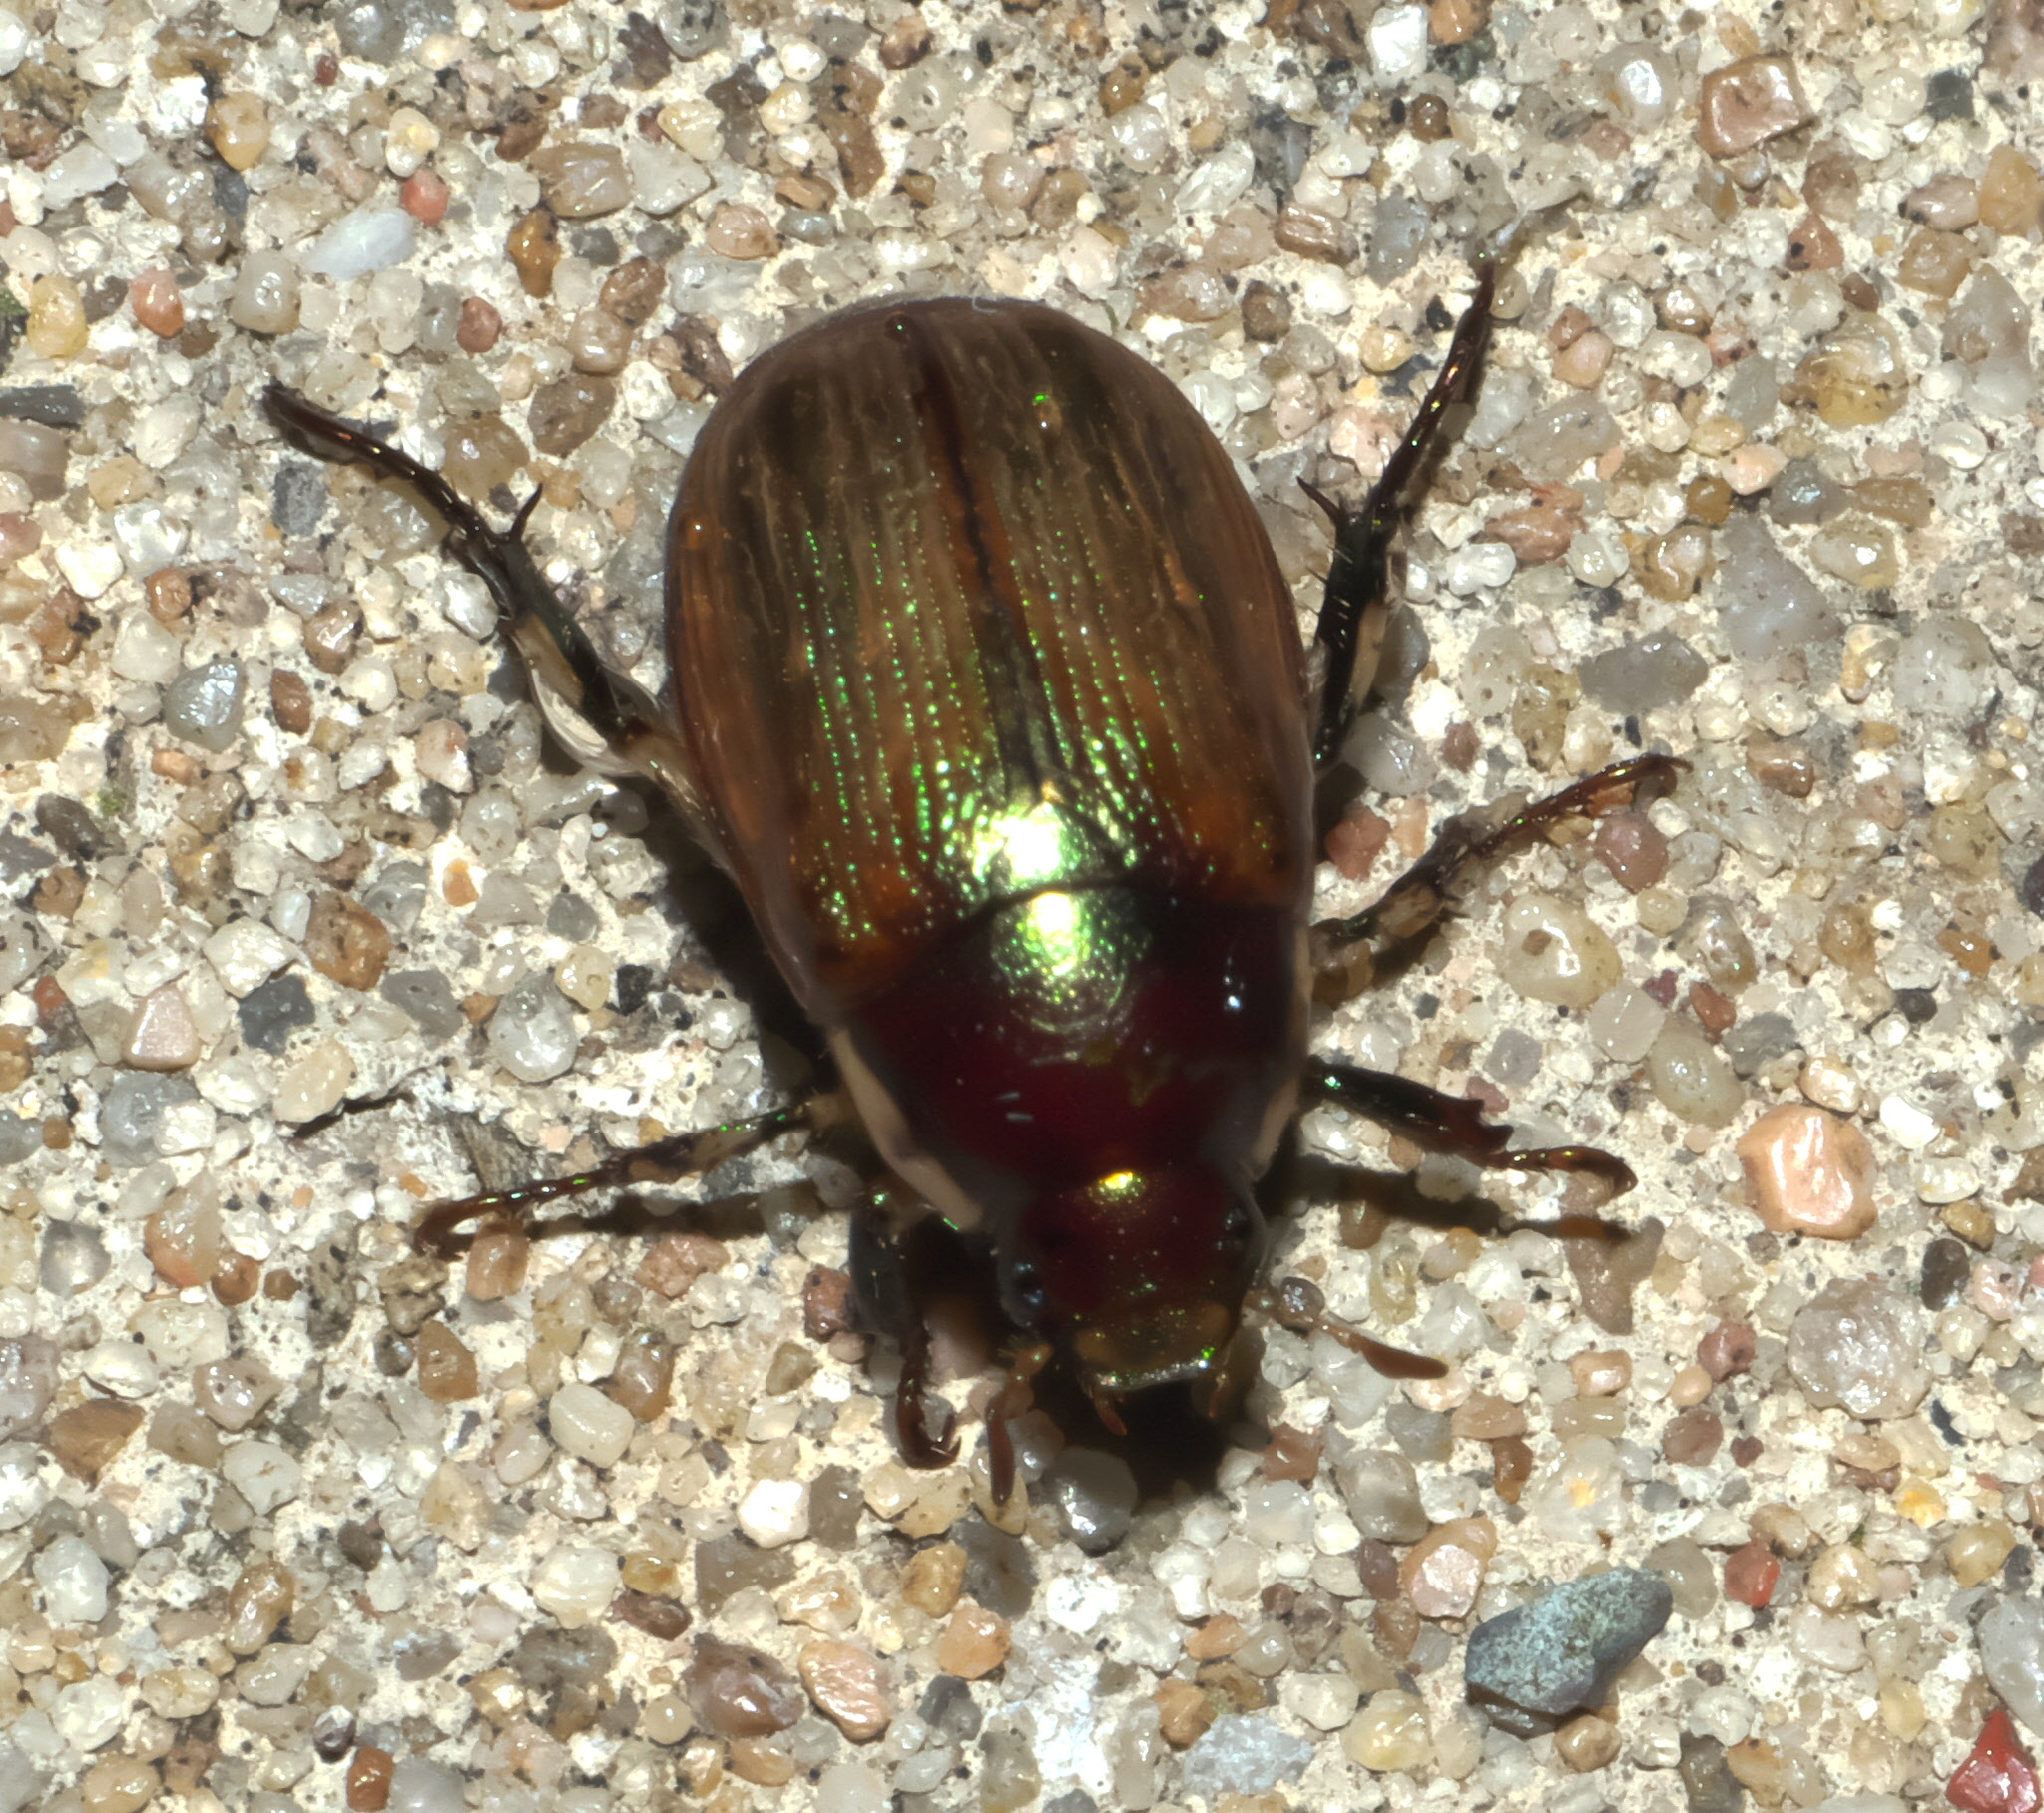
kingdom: Animalia
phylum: Arthropoda
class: Insecta
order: Coleoptera
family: Scarabaeidae
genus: Callistethus
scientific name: Callistethus marginatus
